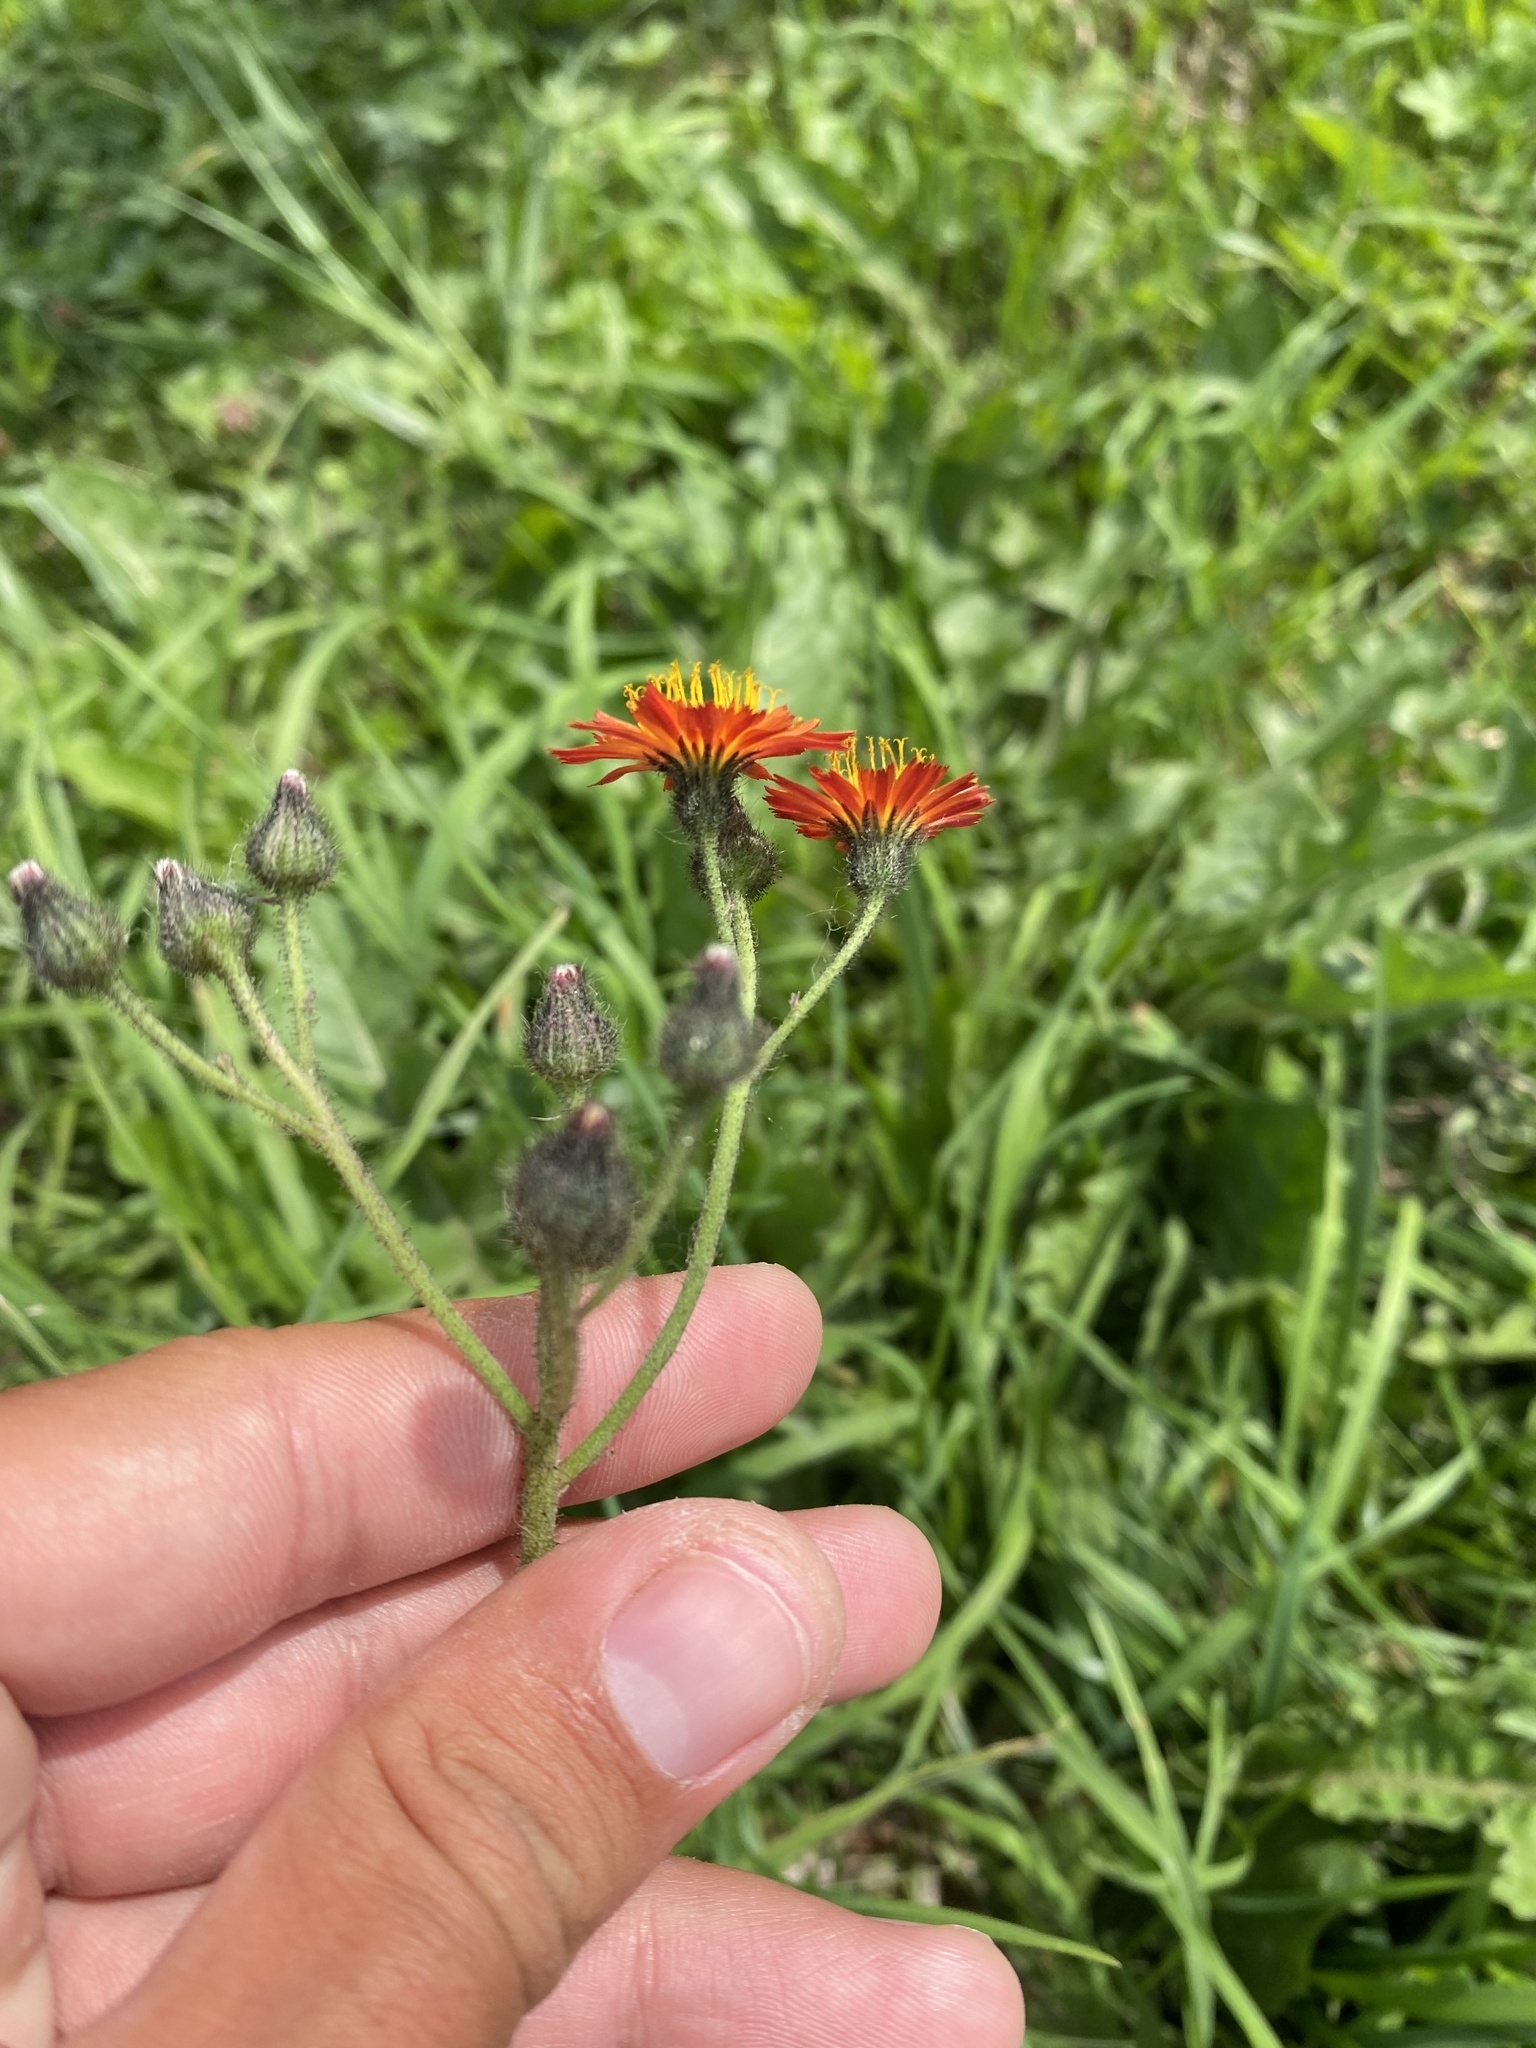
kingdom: Plantae
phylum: Tracheophyta
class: Magnoliopsida
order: Asterales
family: Asteraceae
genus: Pilosella
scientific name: Pilosella aurantiaca
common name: Fox-and-cubs
